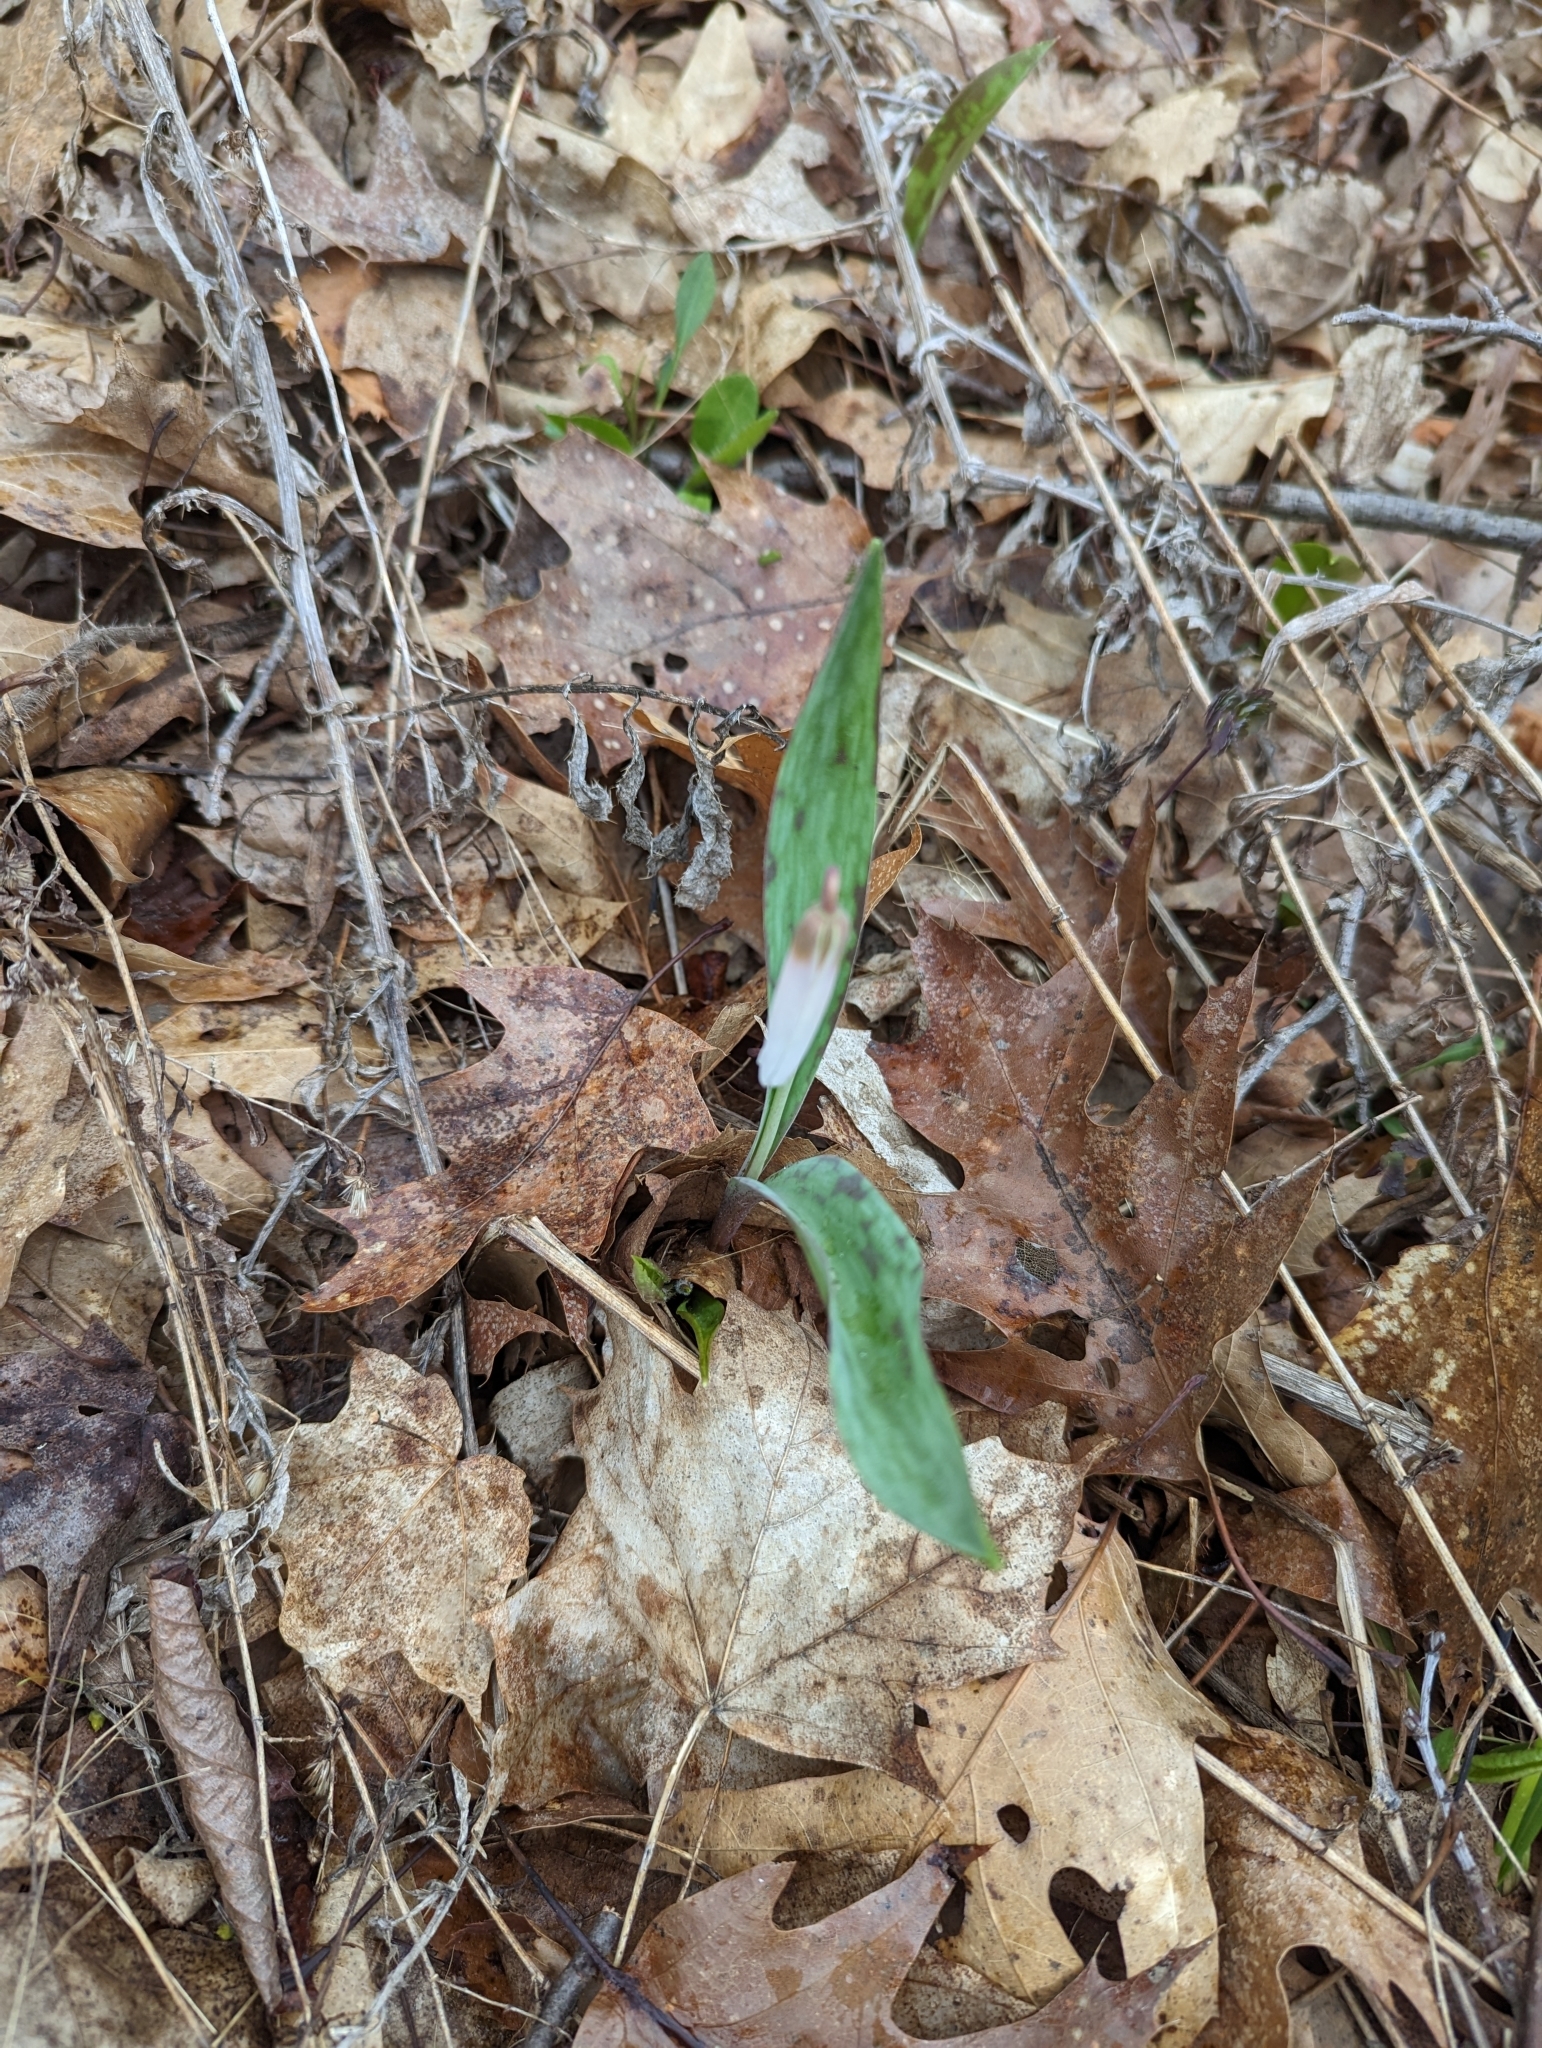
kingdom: Plantae
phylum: Tracheophyta
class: Liliopsida
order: Liliales
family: Liliaceae
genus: Erythronium
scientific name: Erythronium albidum
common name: White trout-lily
